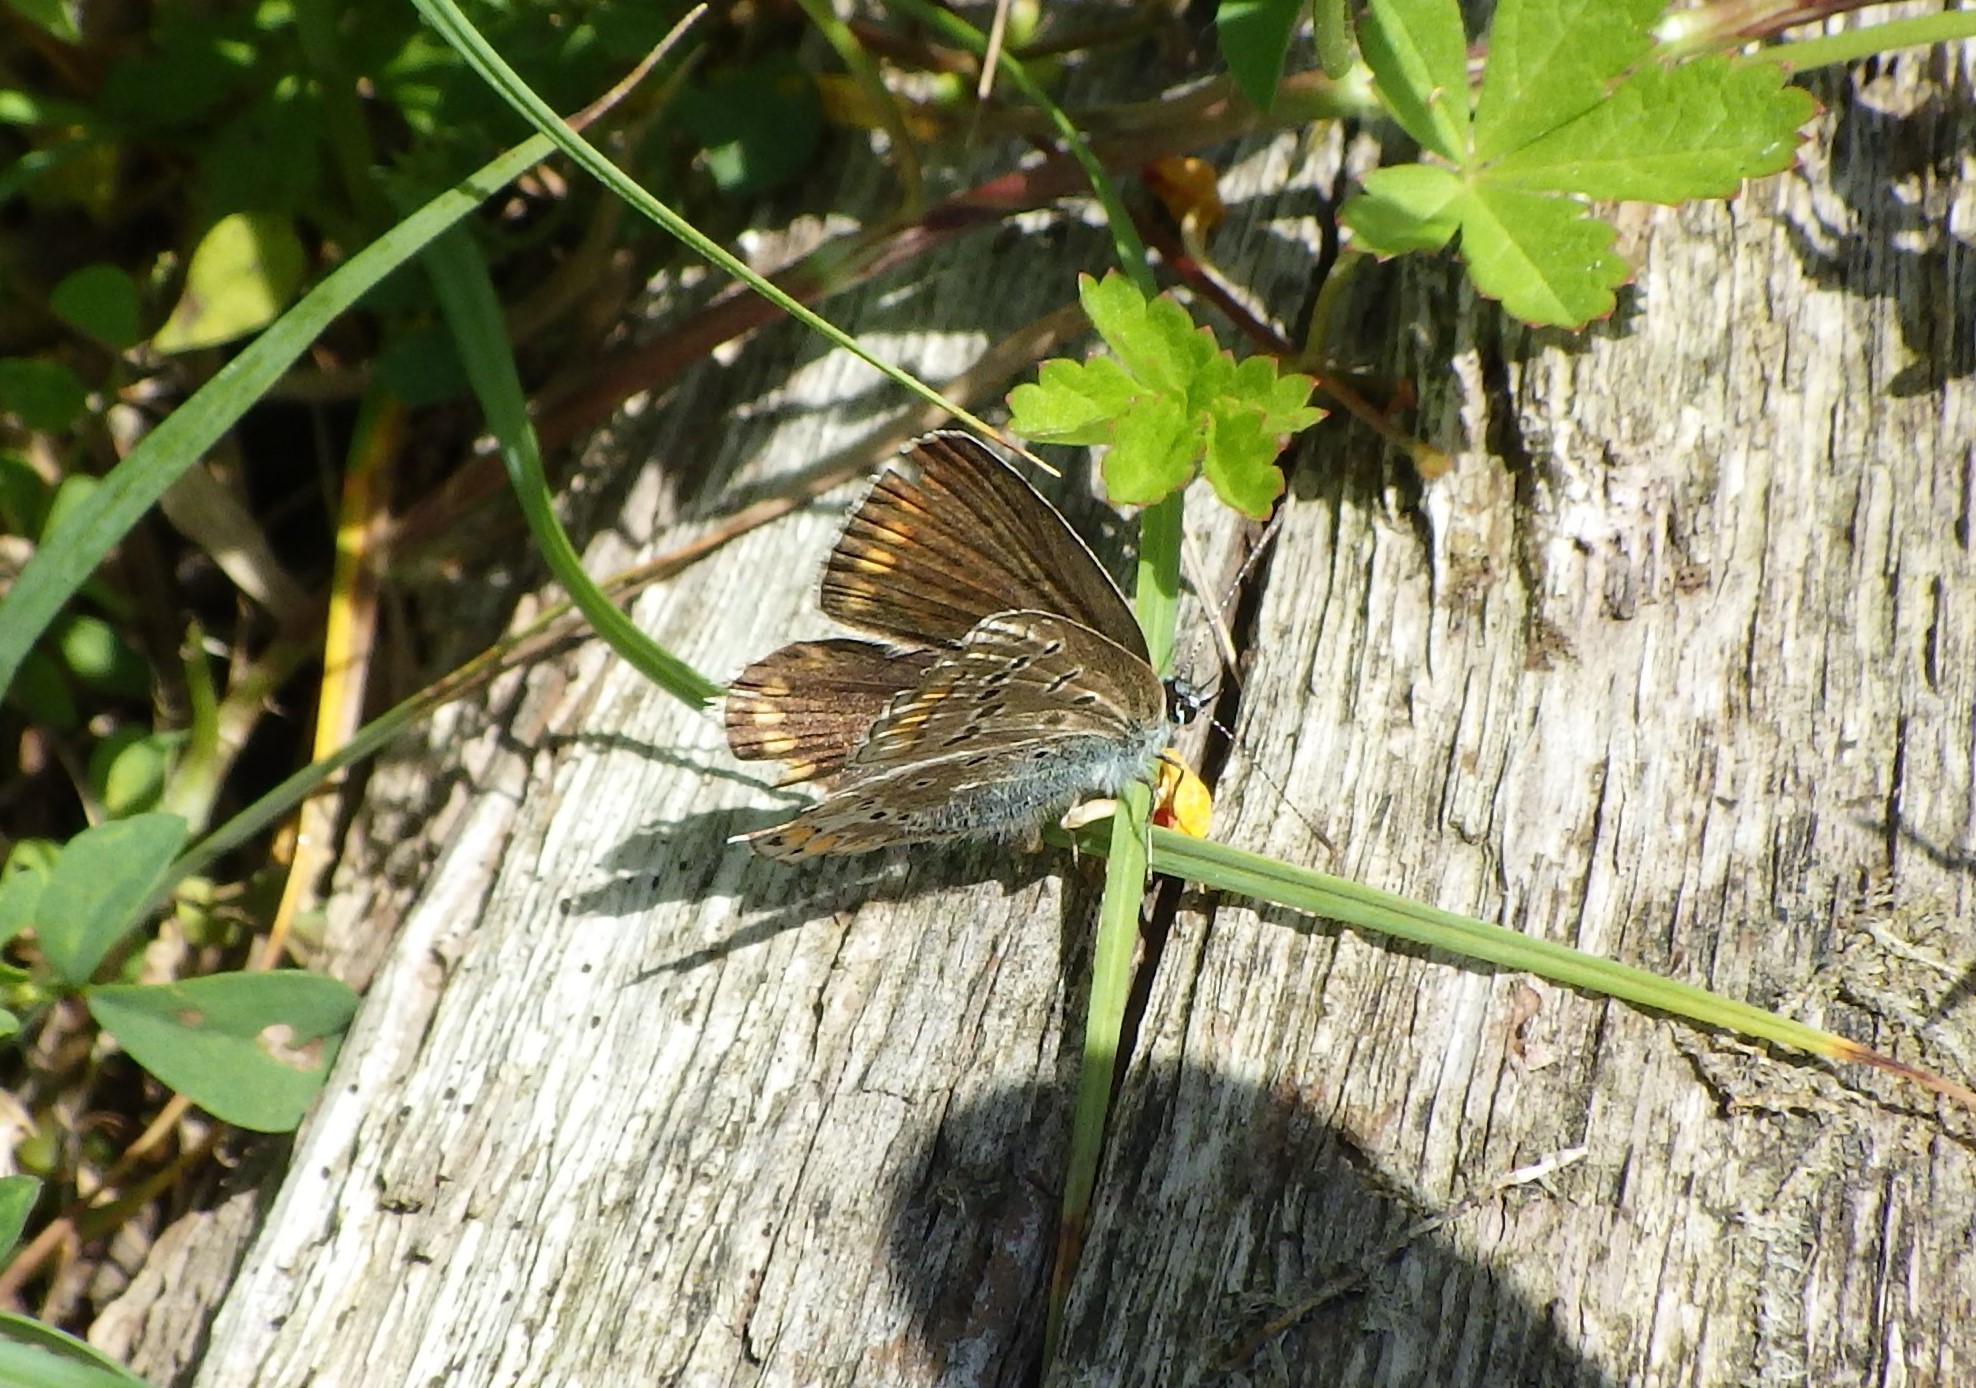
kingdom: Animalia
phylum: Arthropoda
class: Insecta
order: Lepidoptera
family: Lycaenidae
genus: Polyommatus
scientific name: Polyommatus icarus
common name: Common blue
